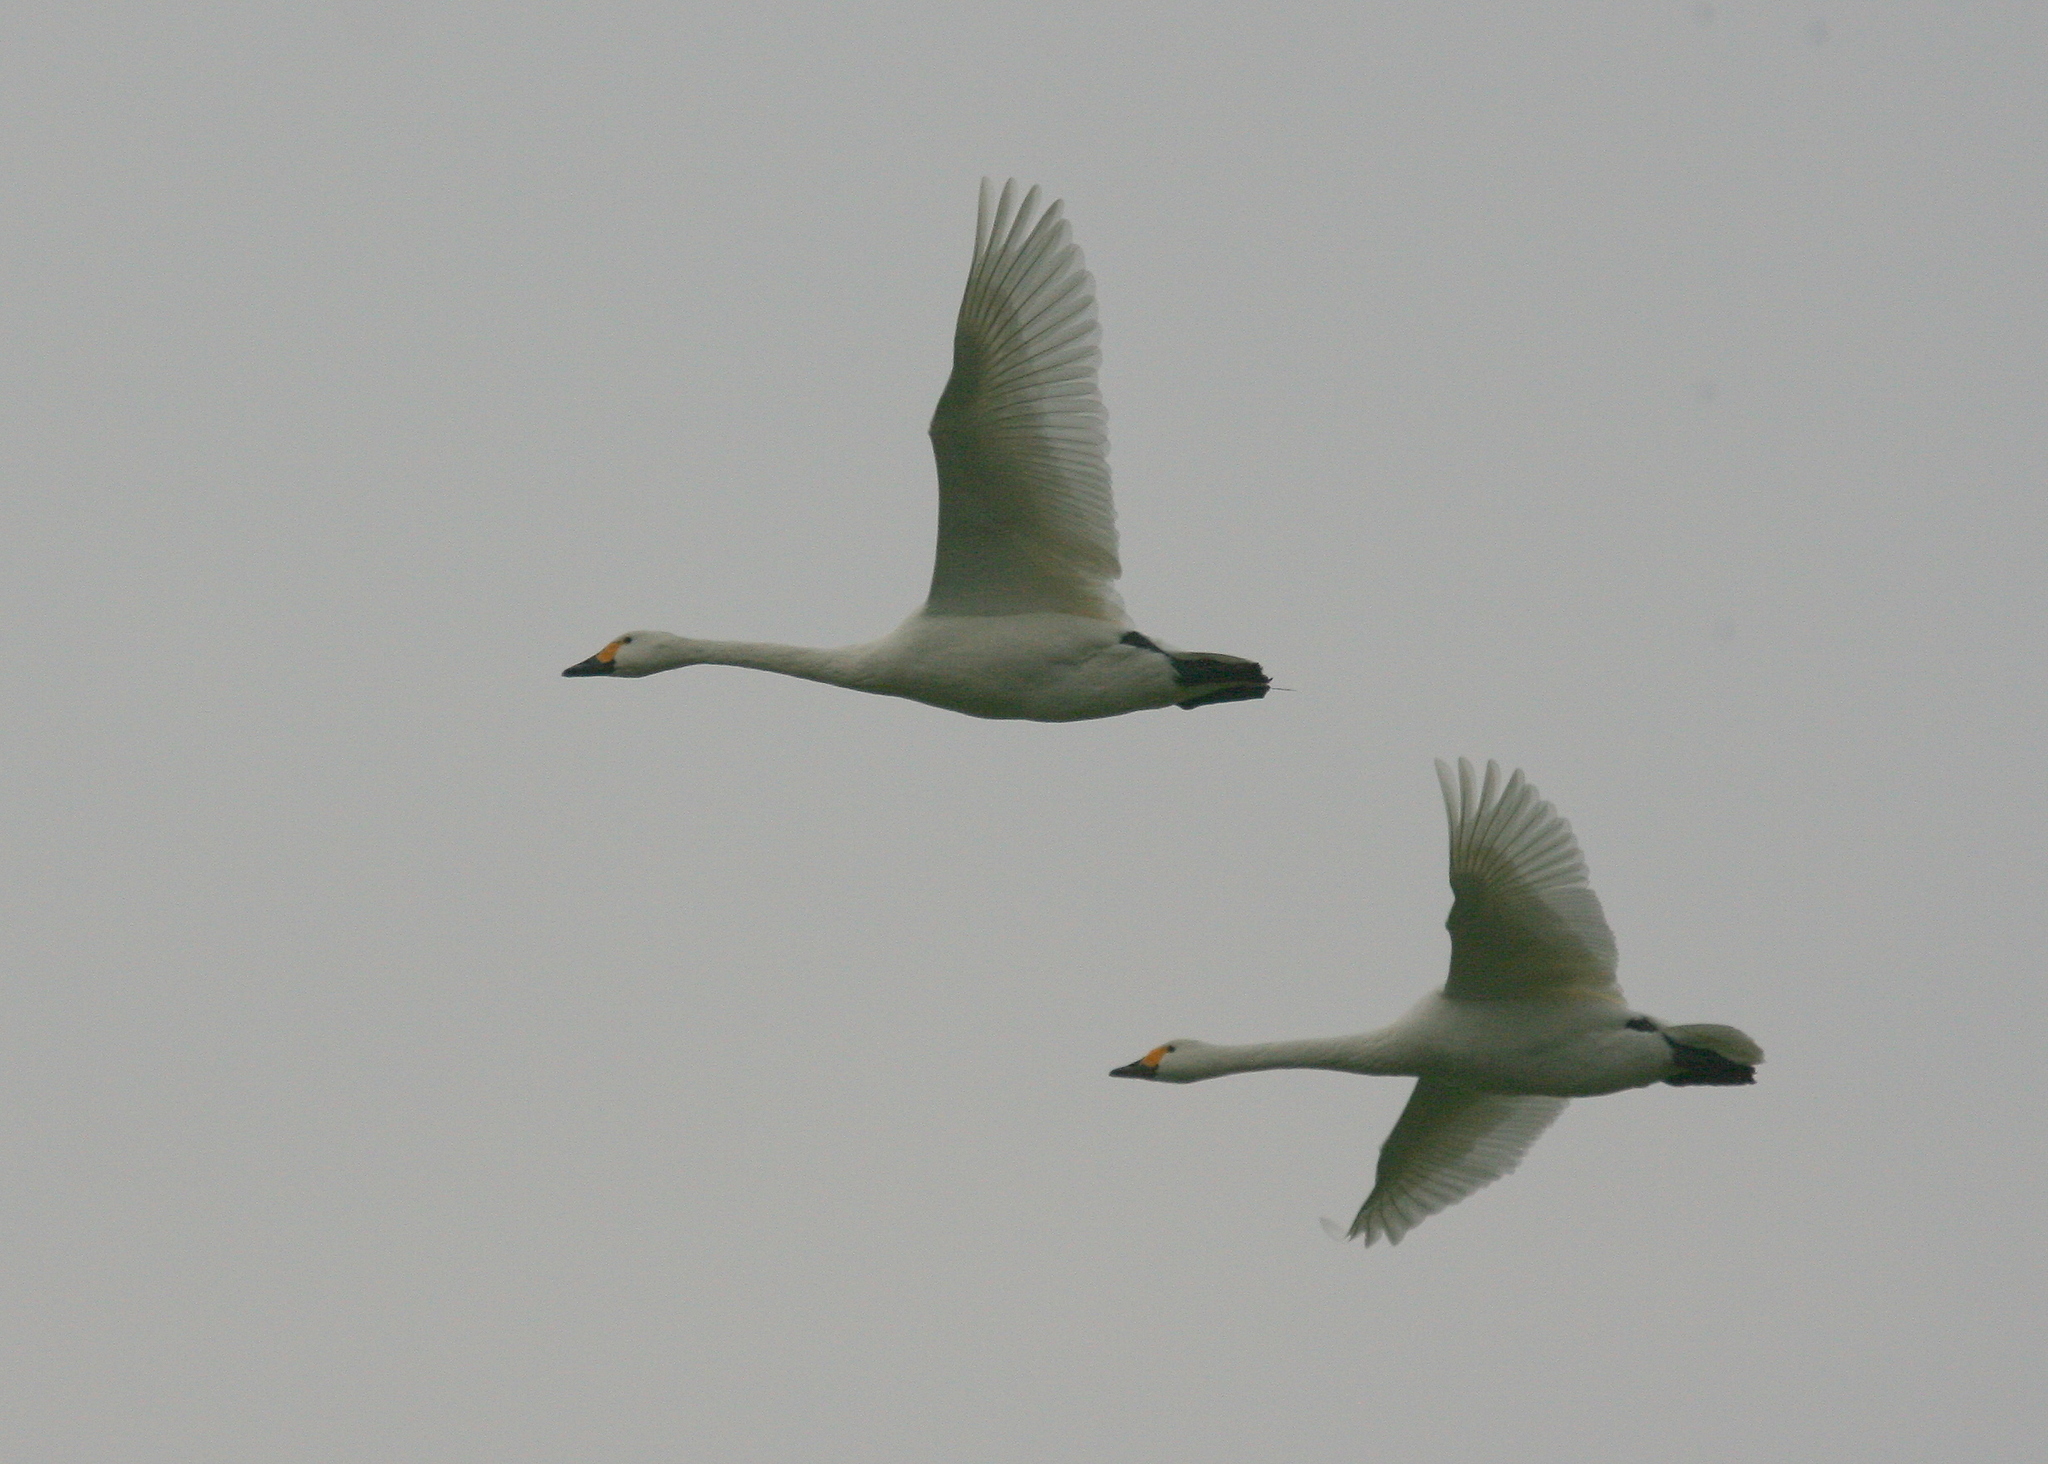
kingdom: Animalia
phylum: Chordata
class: Aves
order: Anseriformes
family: Anatidae
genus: Cygnus
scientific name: Cygnus columbianus
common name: Tundra swan
